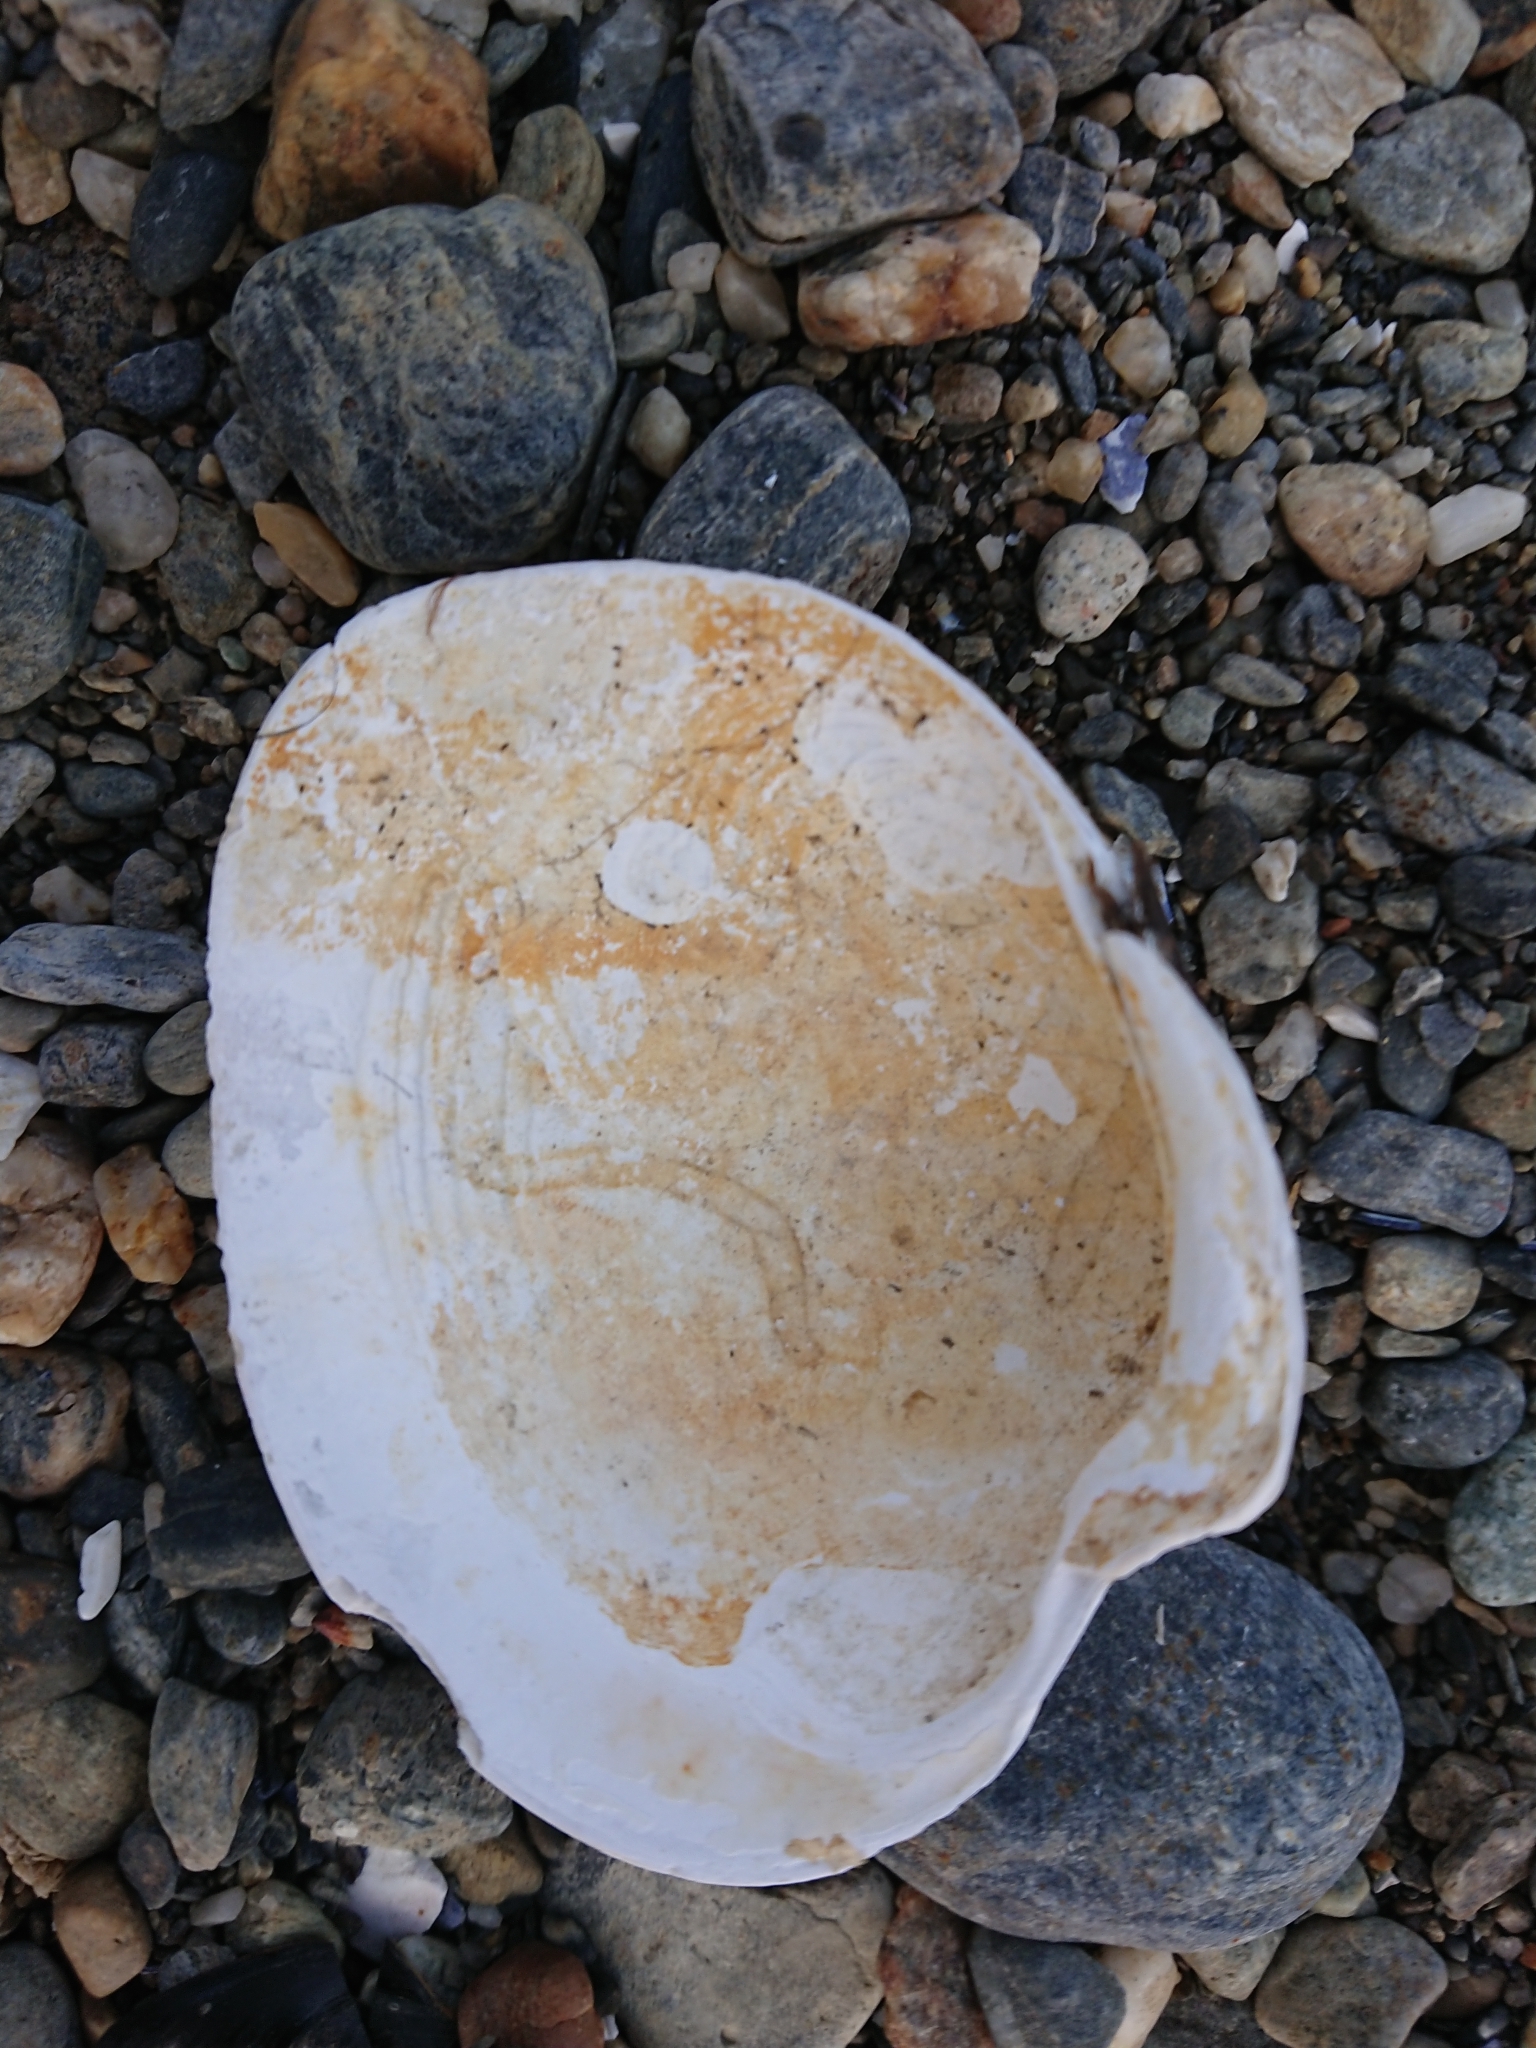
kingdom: Animalia
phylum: Mollusca
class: Bivalvia
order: Venerida
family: Veneridae
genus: Retrotapes
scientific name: Retrotapes exalbidus
